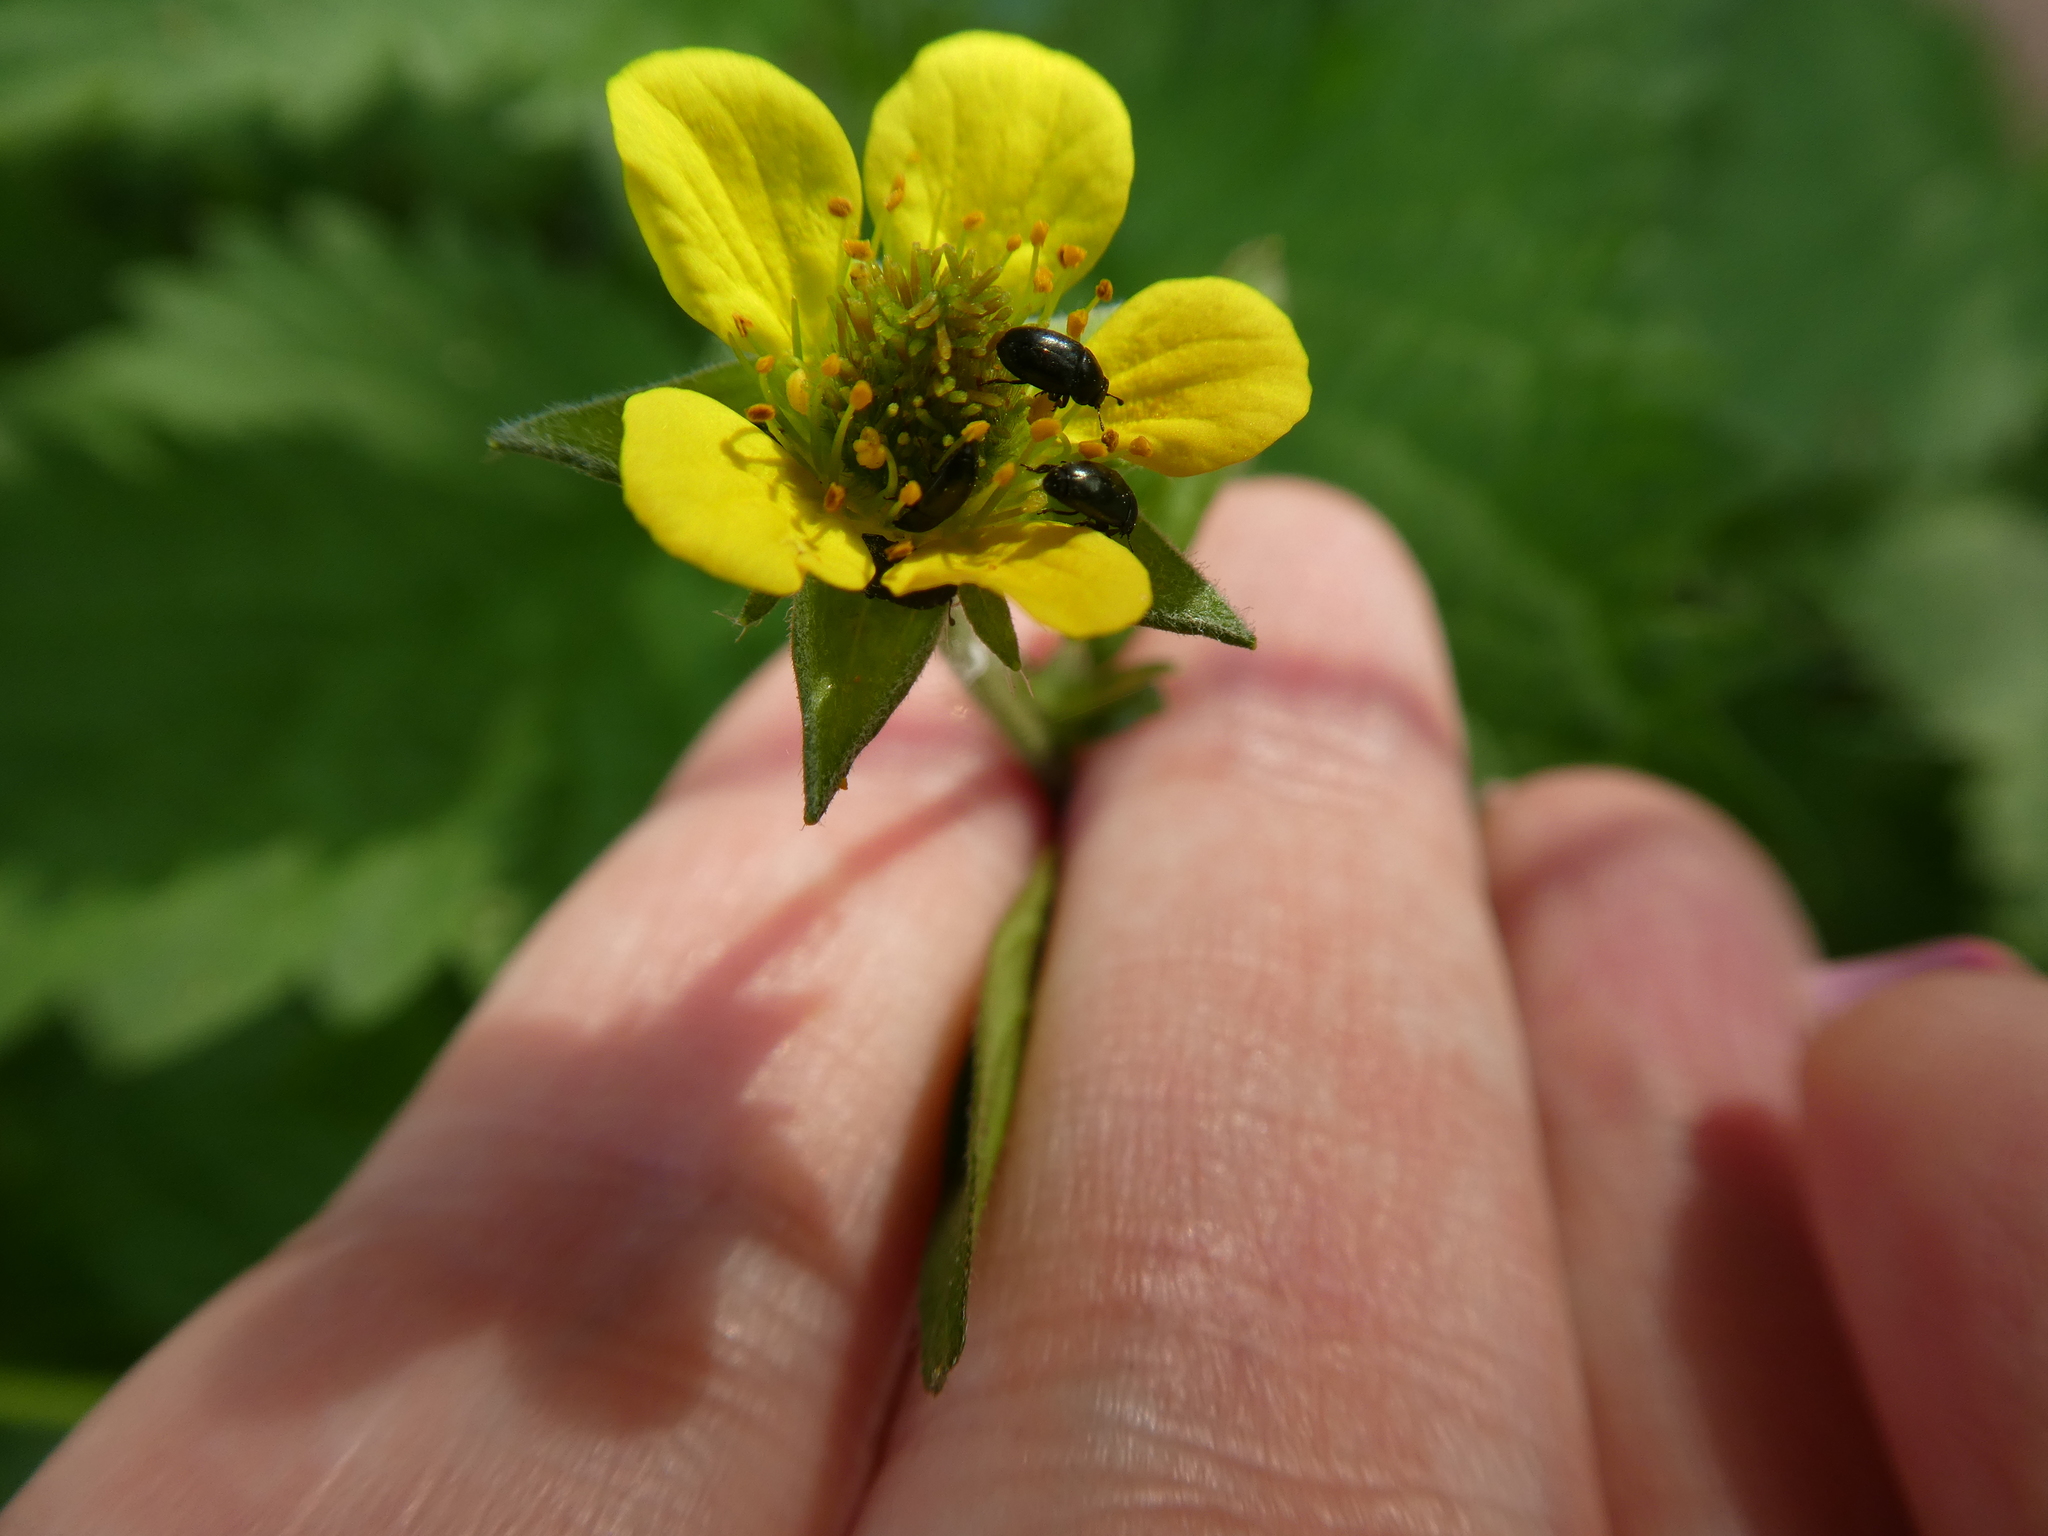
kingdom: Plantae
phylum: Tracheophyta
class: Magnoliopsida
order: Rosales
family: Rosaceae
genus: Geum
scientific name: Geum urbanum
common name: Wood avens
